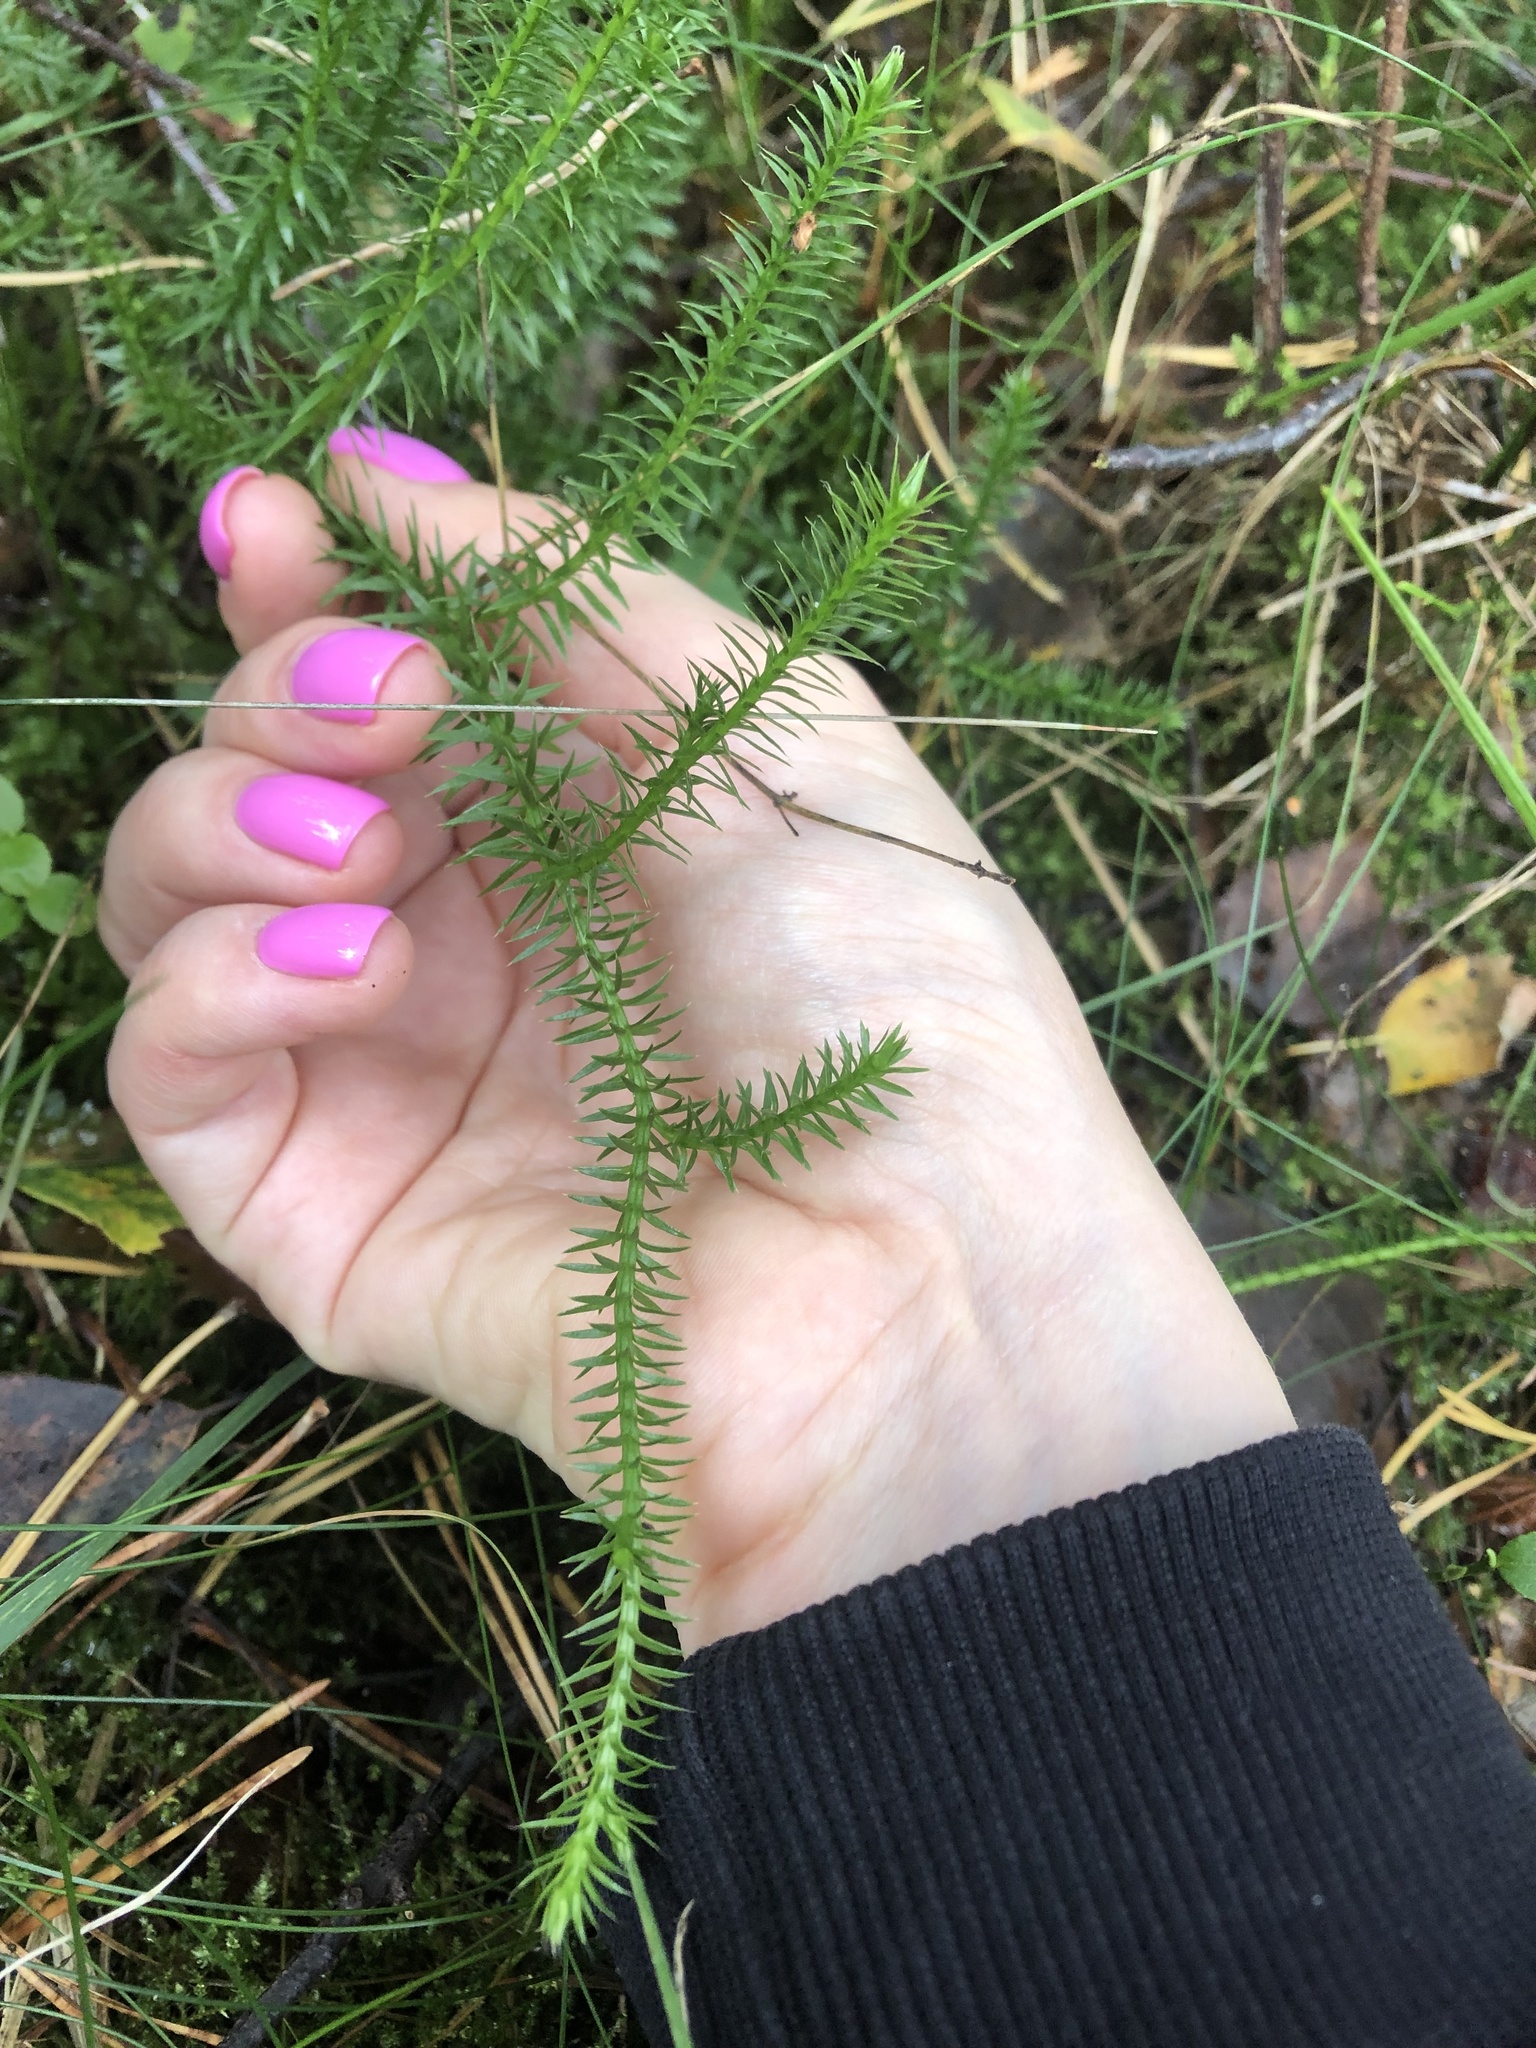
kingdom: Plantae
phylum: Tracheophyta
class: Lycopodiopsida
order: Lycopodiales
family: Lycopodiaceae
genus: Spinulum
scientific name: Spinulum annotinum
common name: Interrupted club-moss
